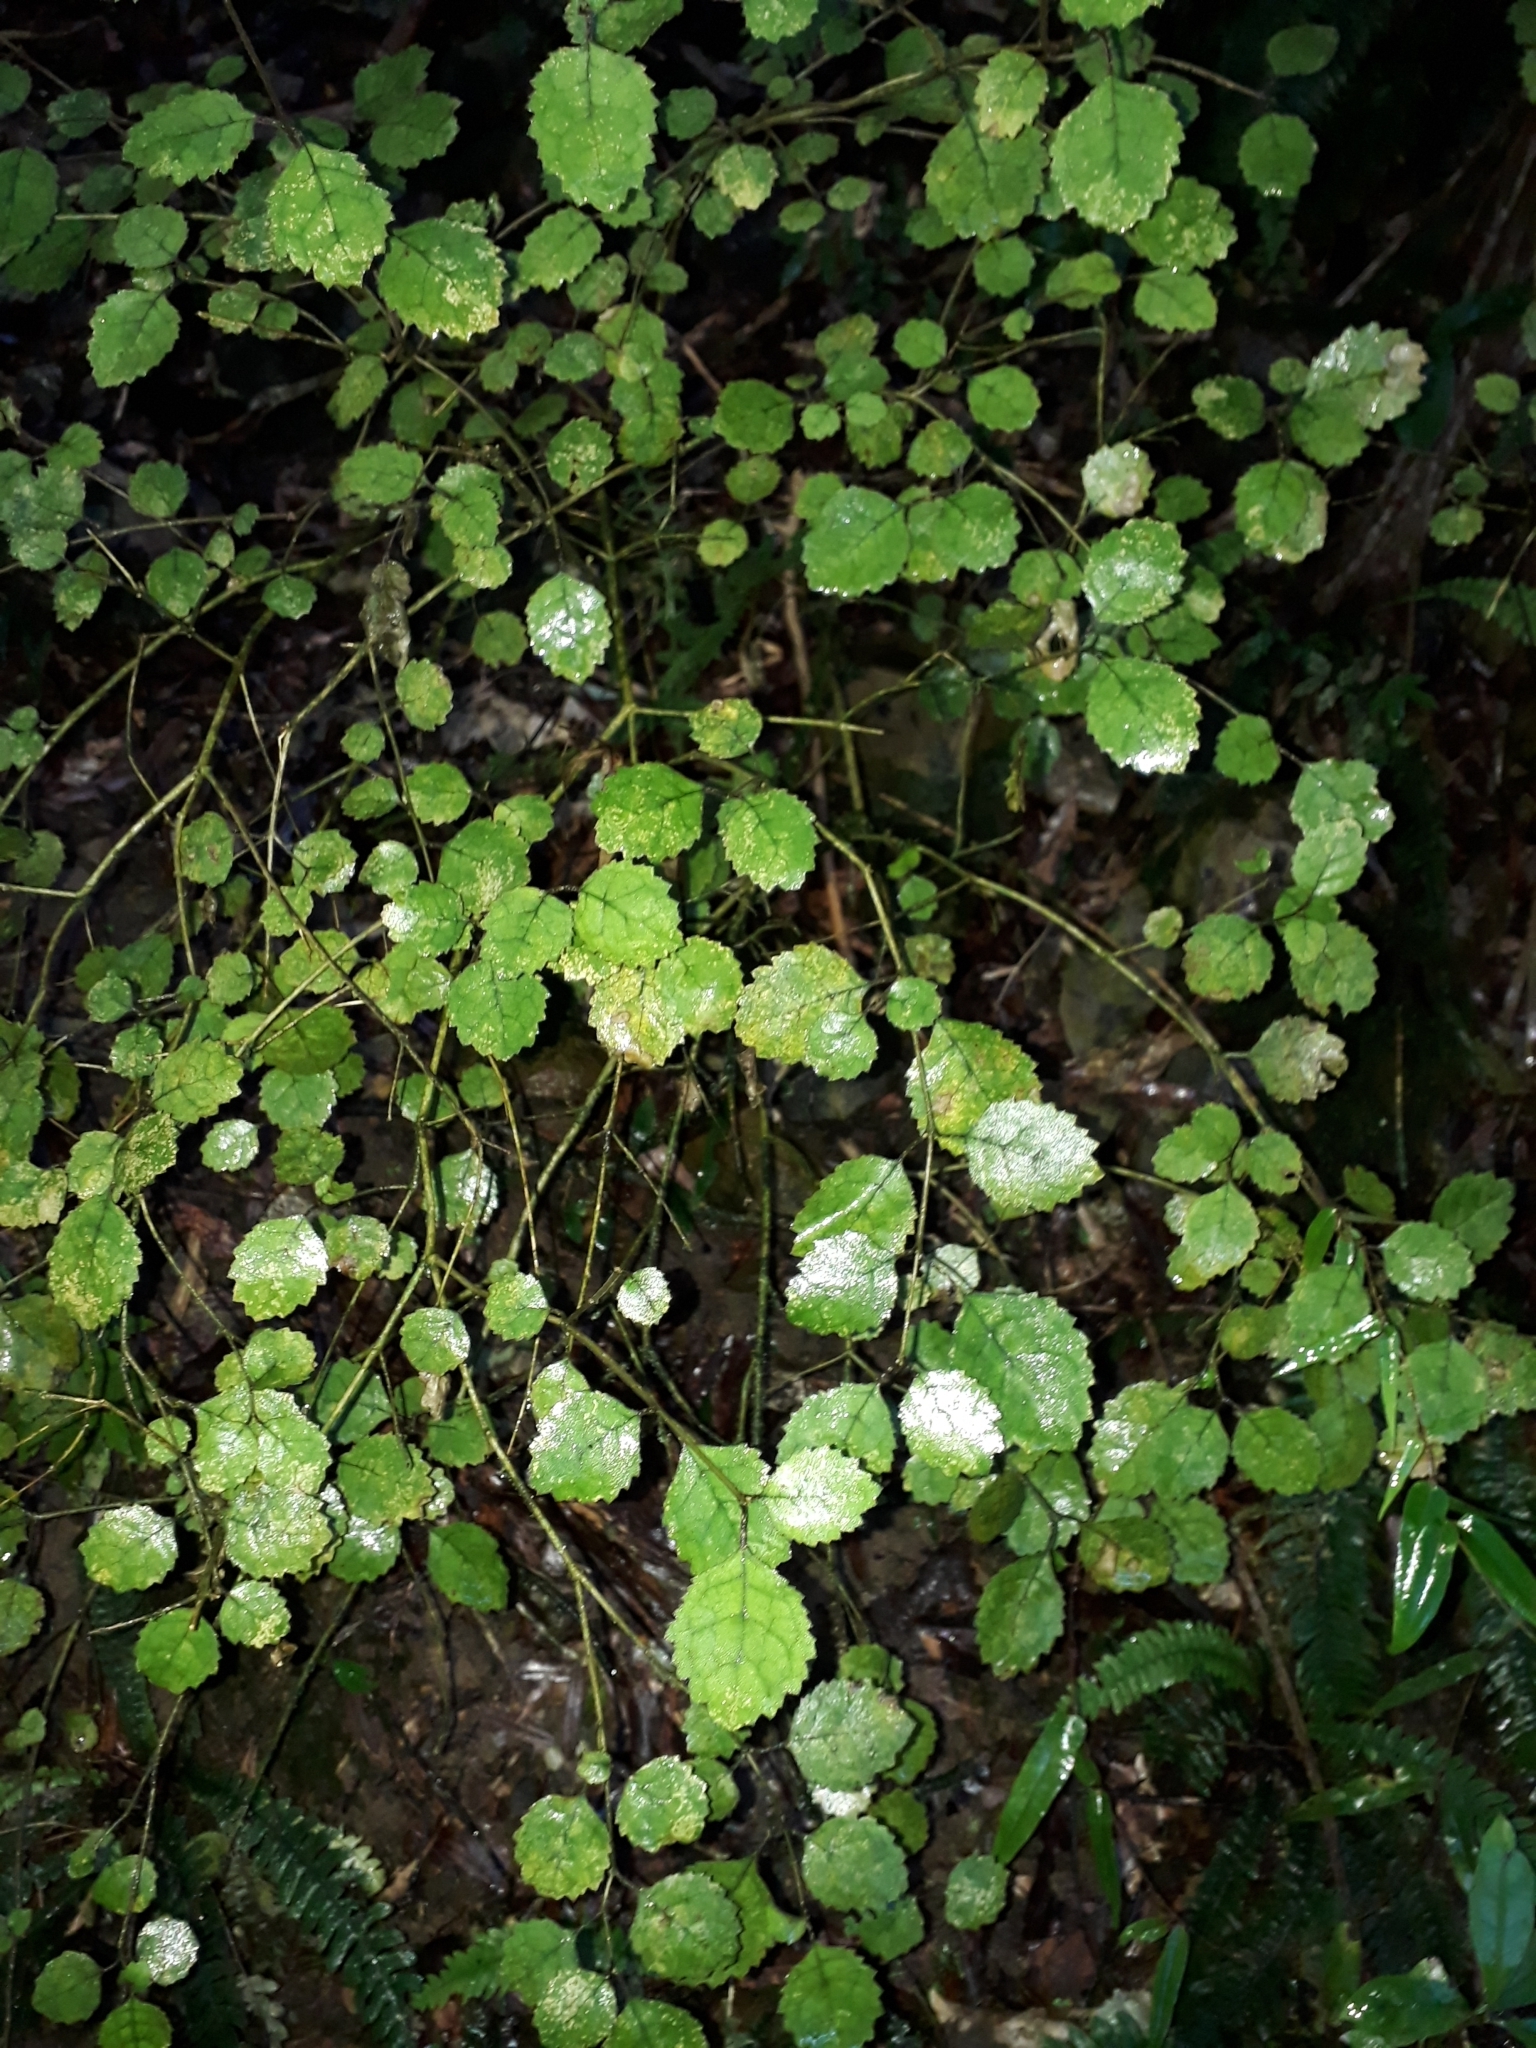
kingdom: Plantae
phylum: Tracheophyta
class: Magnoliopsida
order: Lamiales
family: Gesneriaceae
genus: Rhabdothamnus
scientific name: Rhabdothamnus solandri
